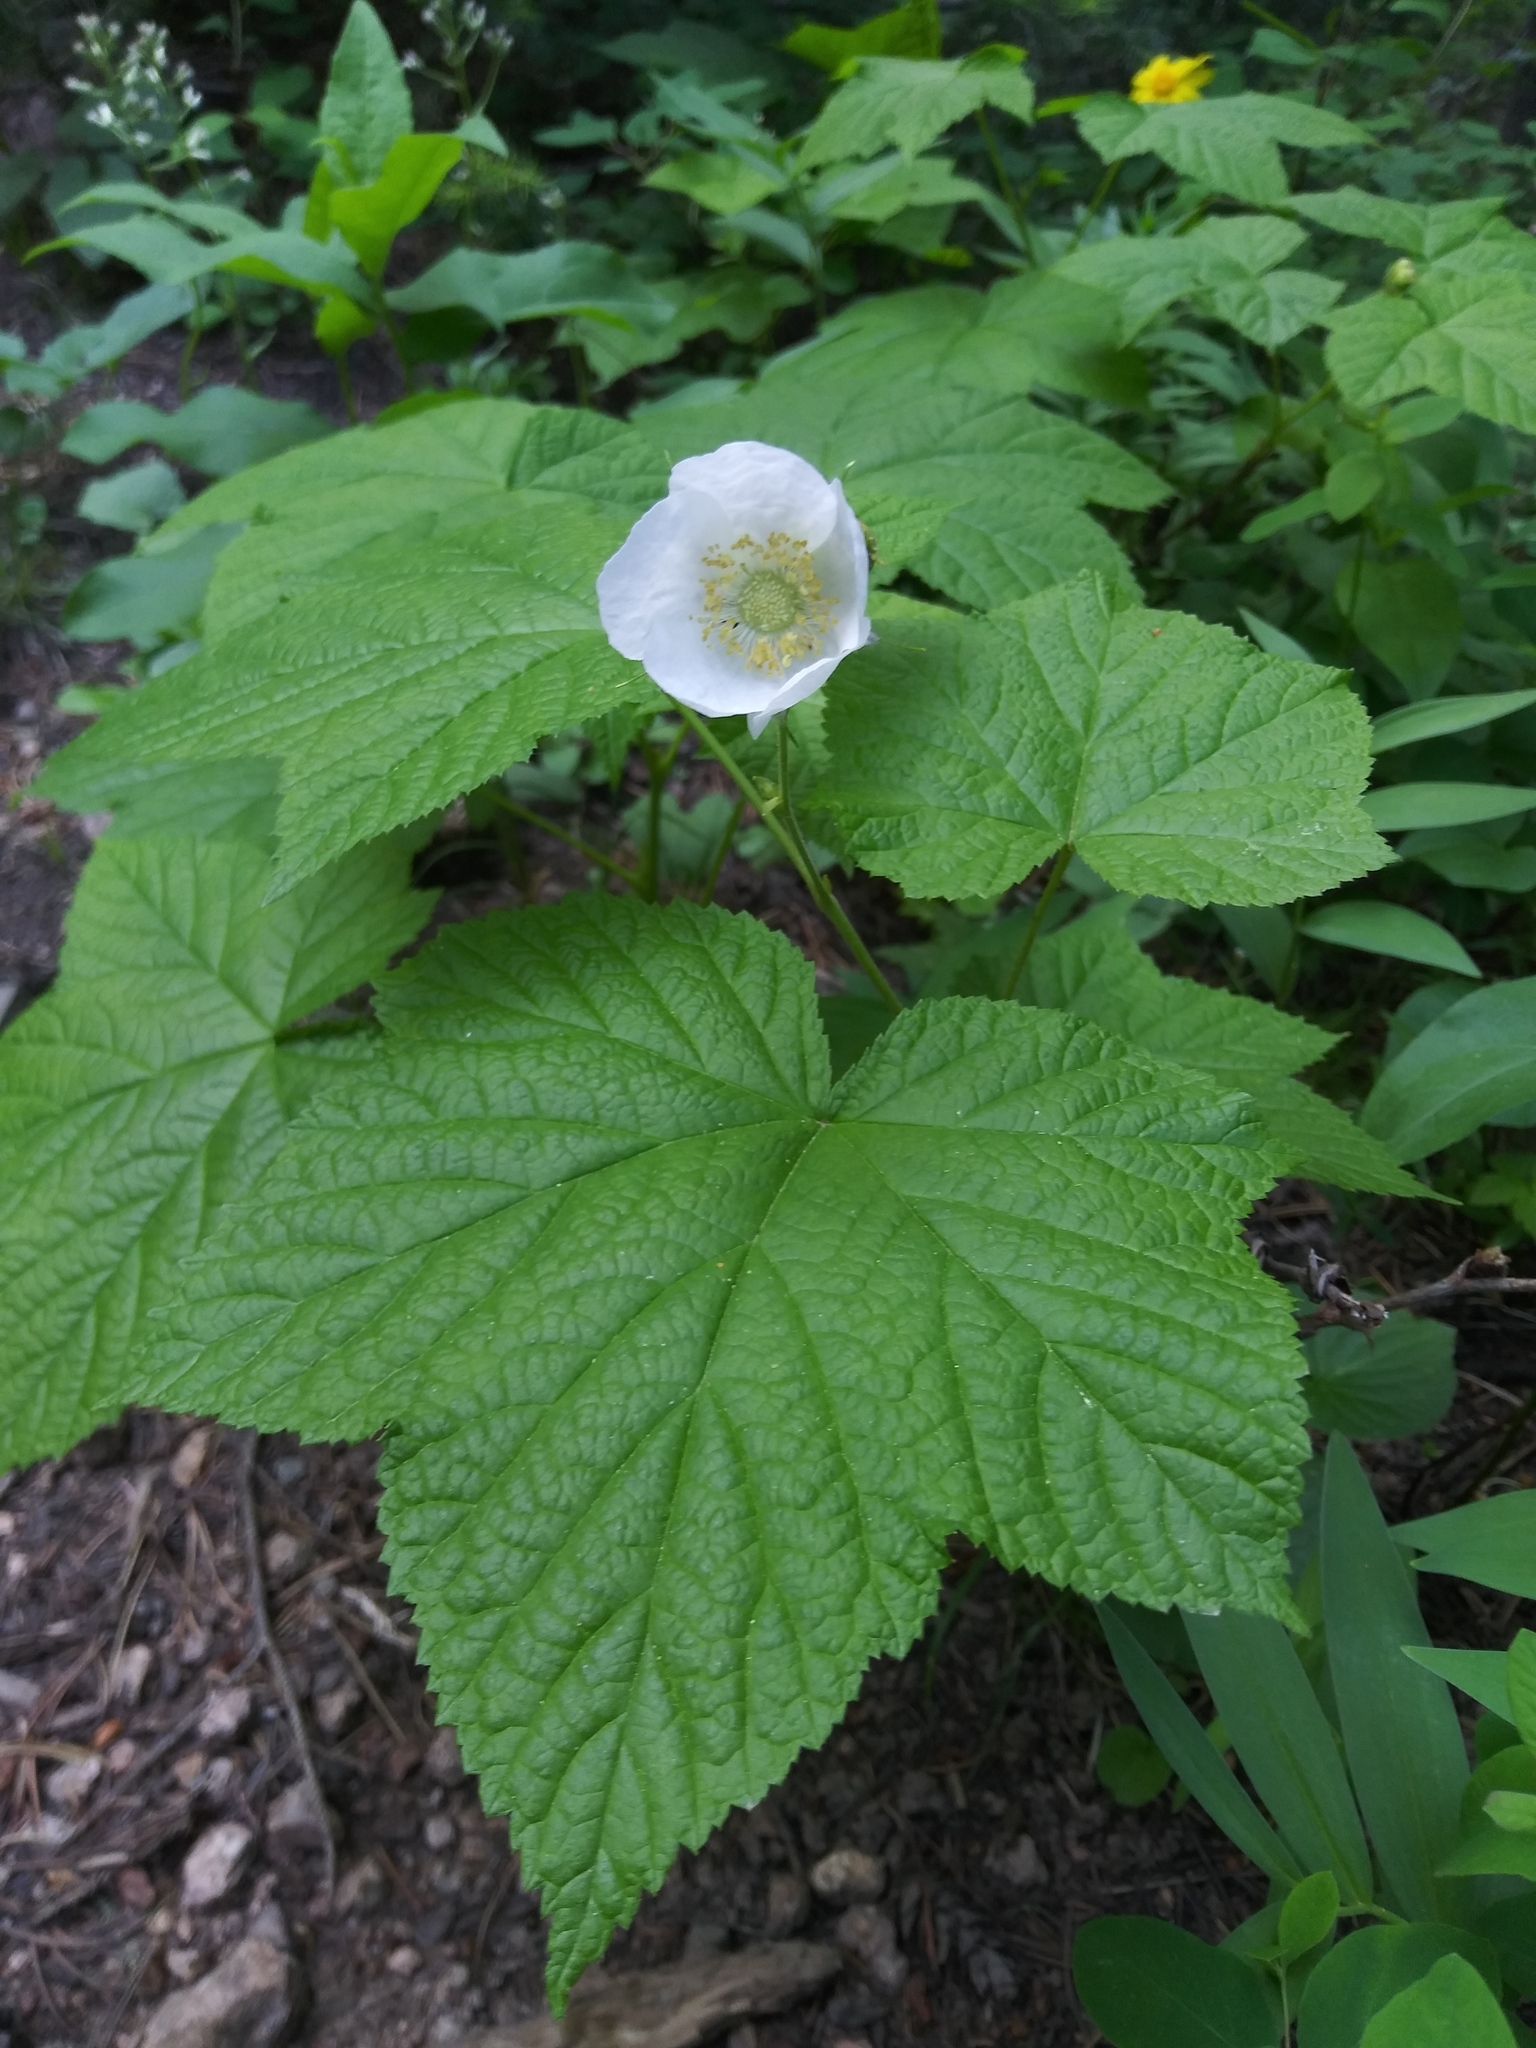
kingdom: Plantae
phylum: Tracheophyta
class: Magnoliopsida
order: Rosales
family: Rosaceae
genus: Rubus
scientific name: Rubus parviflorus
